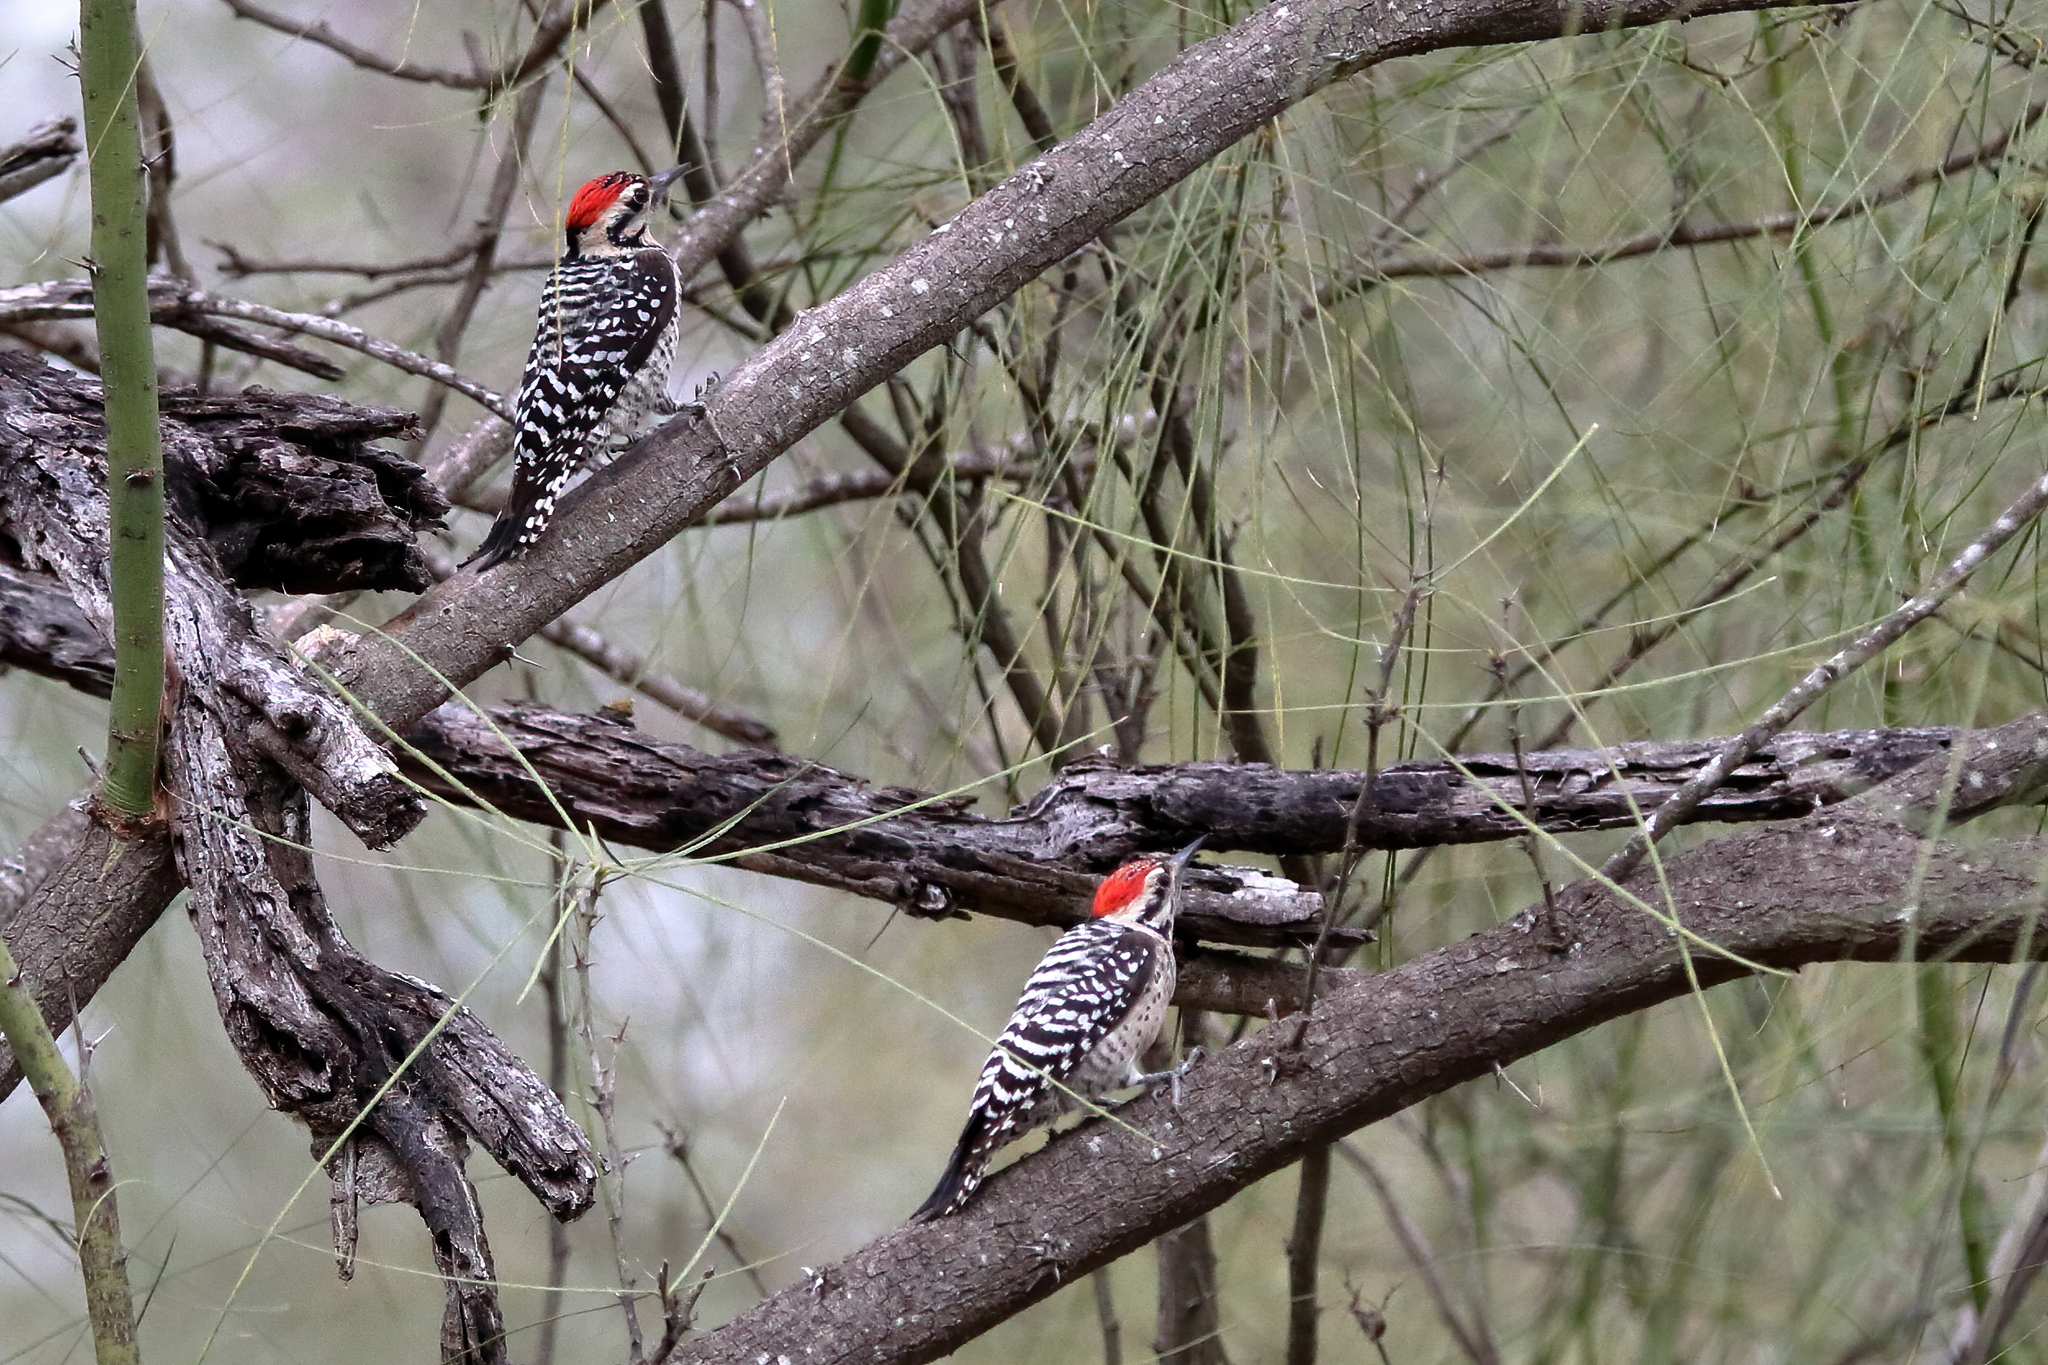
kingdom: Animalia
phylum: Chordata
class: Aves
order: Piciformes
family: Picidae
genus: Dryobates
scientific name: Dryobates scalaris
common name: Ladder-backed woodpecker
